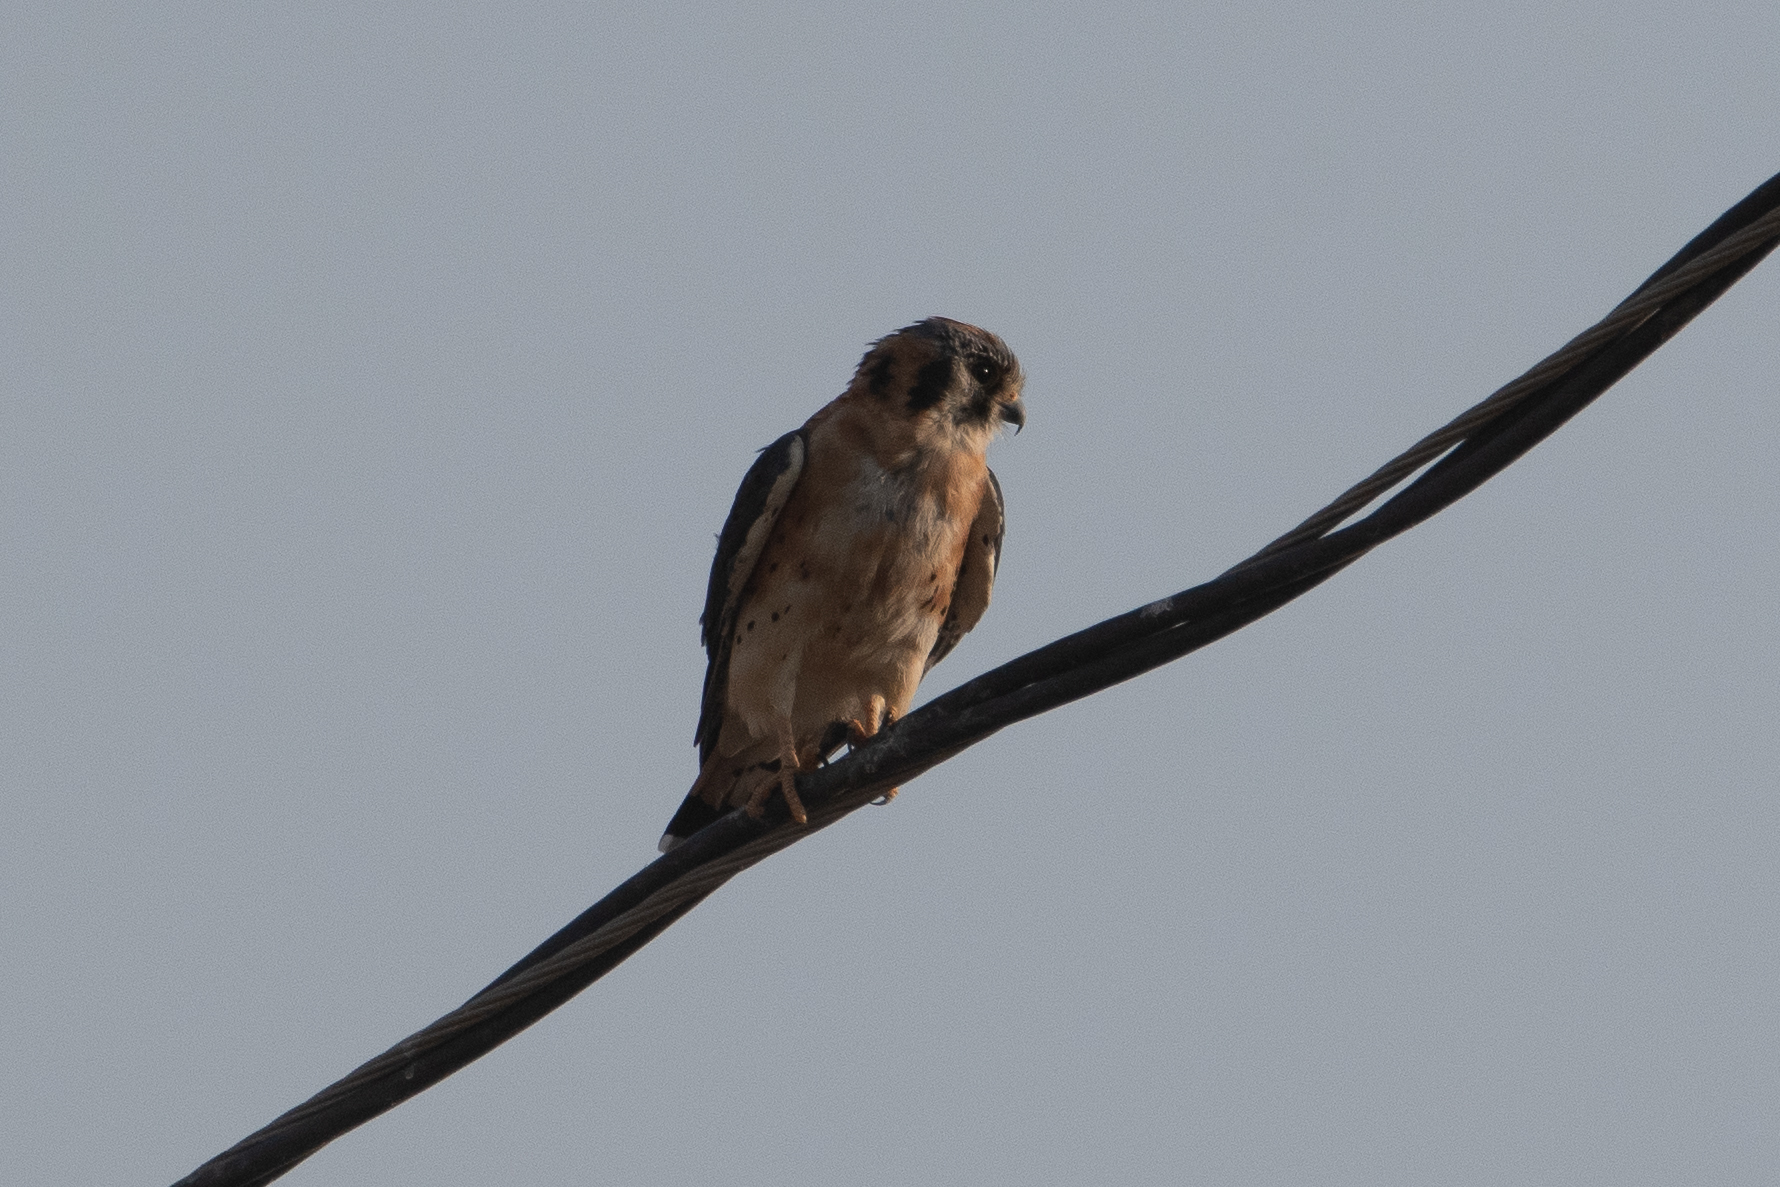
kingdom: Animalia
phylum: Chordata
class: Aves
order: Falconiformes
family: Falconidae
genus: Falco
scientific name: Falco sparverius
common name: American kestrel
